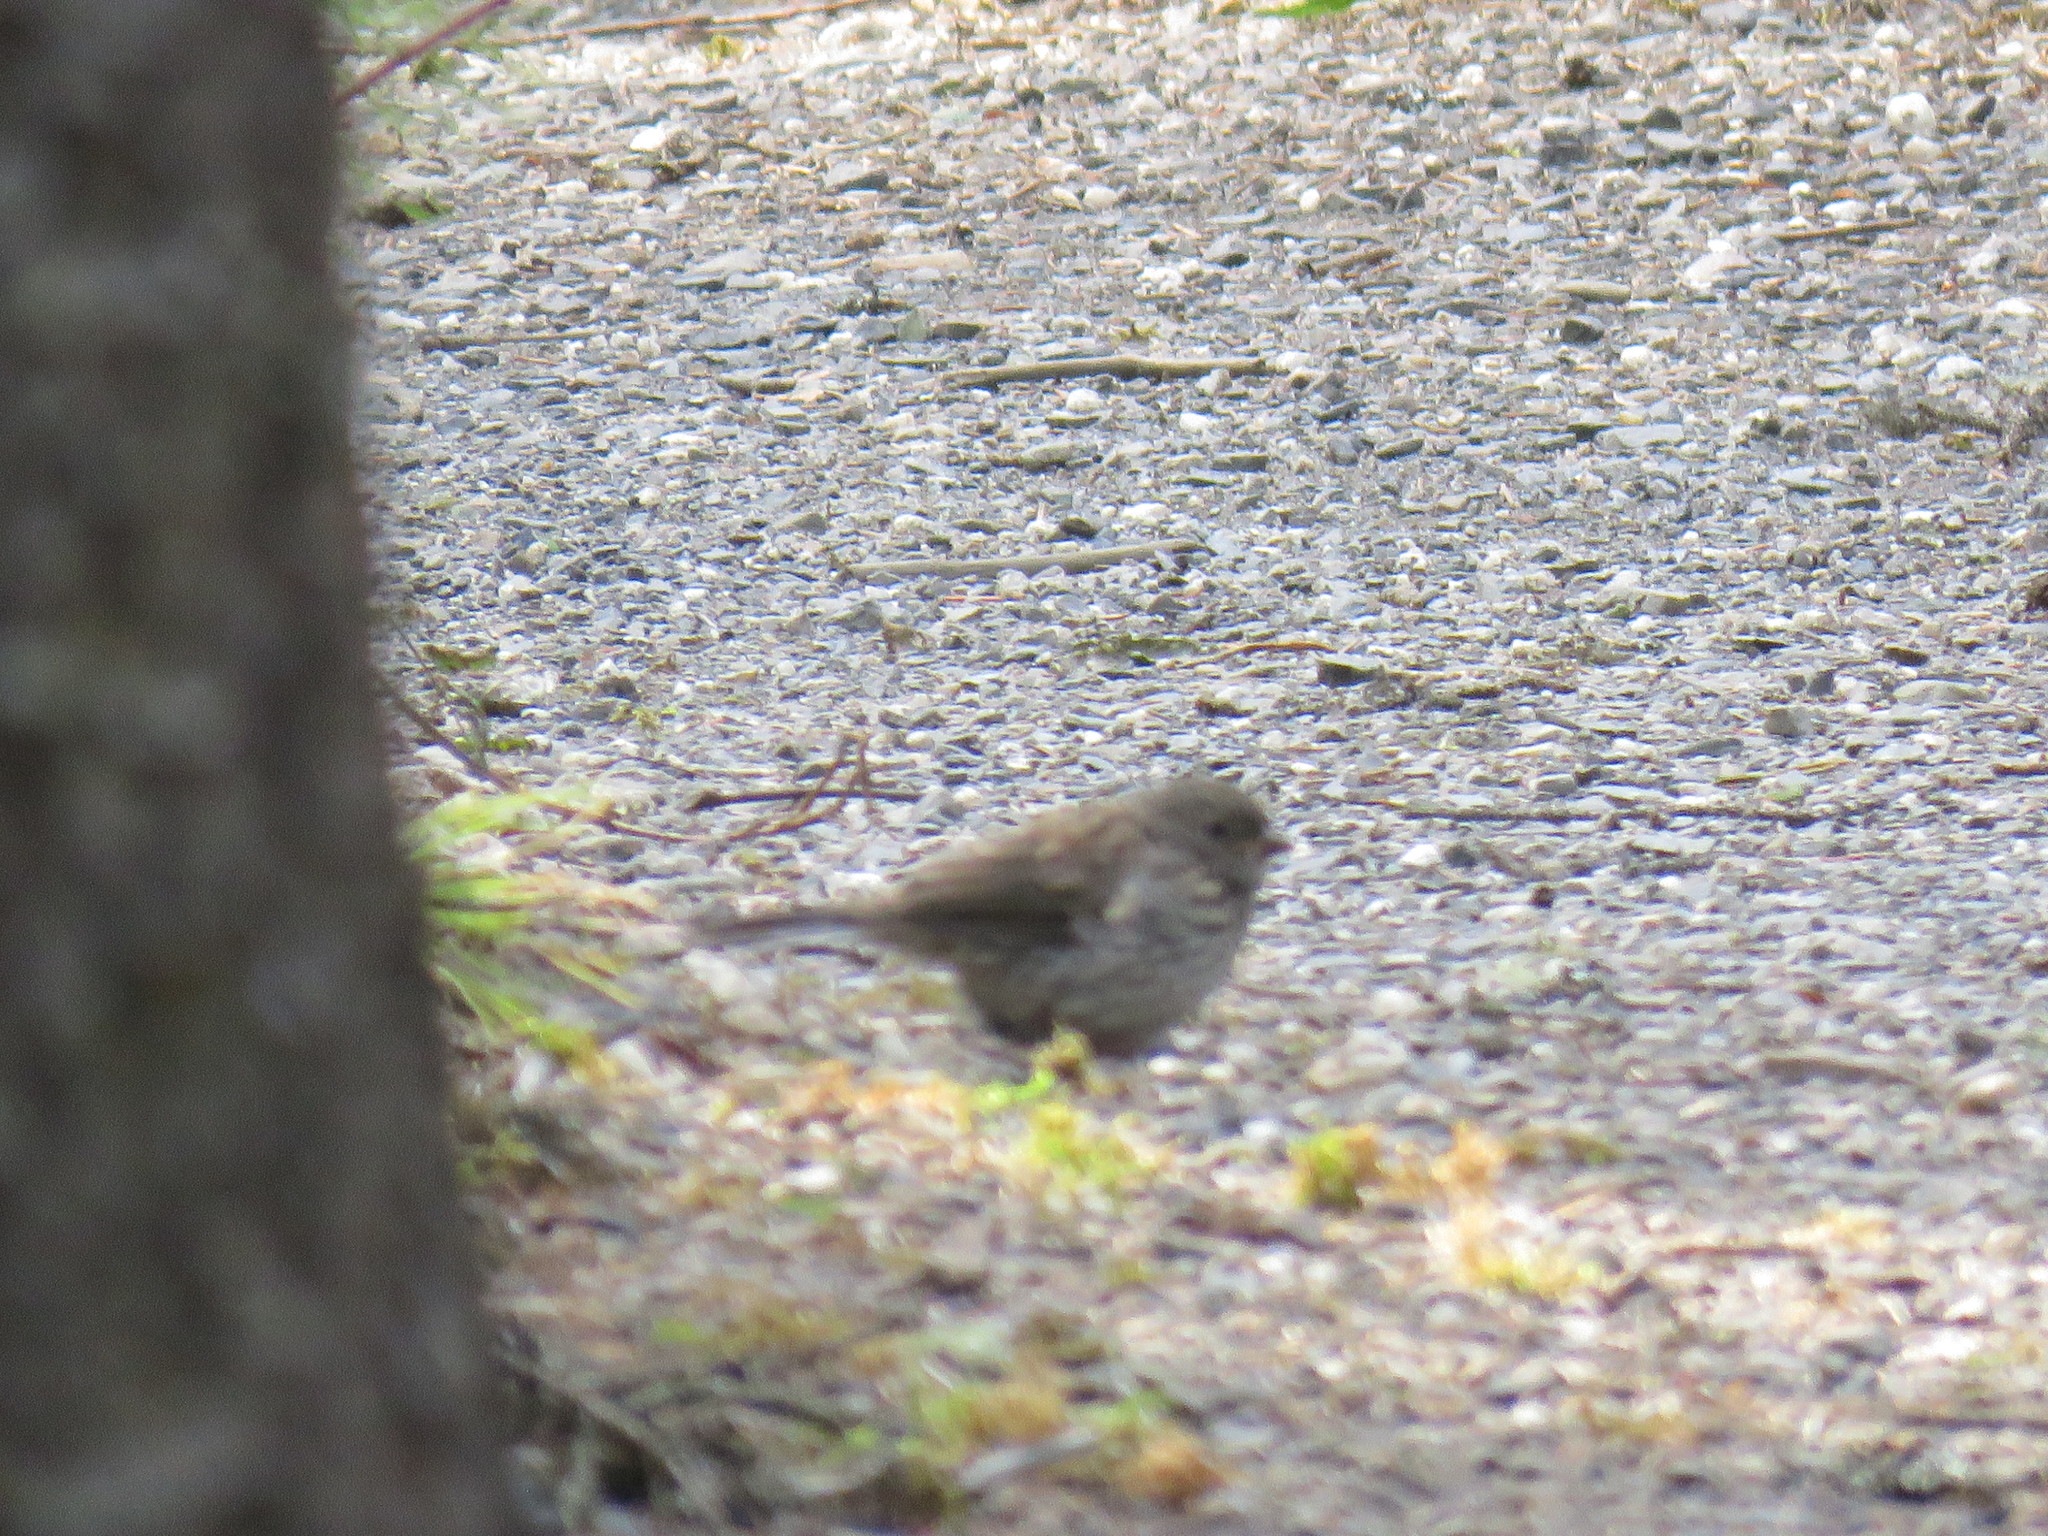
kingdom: Animalia
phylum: Chordata
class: Aves
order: Passeriformes
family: Passerellidae
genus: Junco
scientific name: Junco hyemalis
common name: Dark-eyed junco
